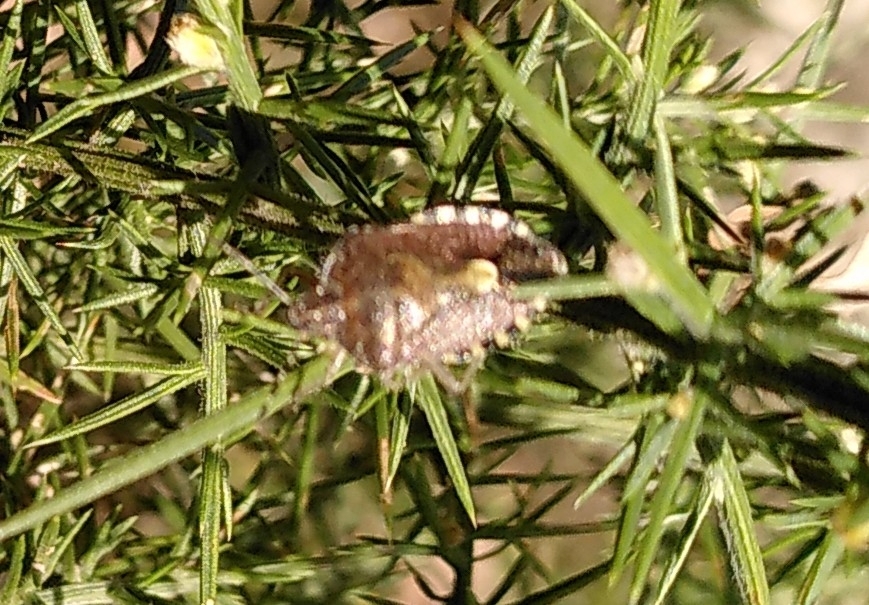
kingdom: Animalia
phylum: Arthropoda
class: Insecta
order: Hemiptera
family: Pentatomidae
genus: Dolycoris
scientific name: Dolycoris baccarum
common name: Sloe bug
